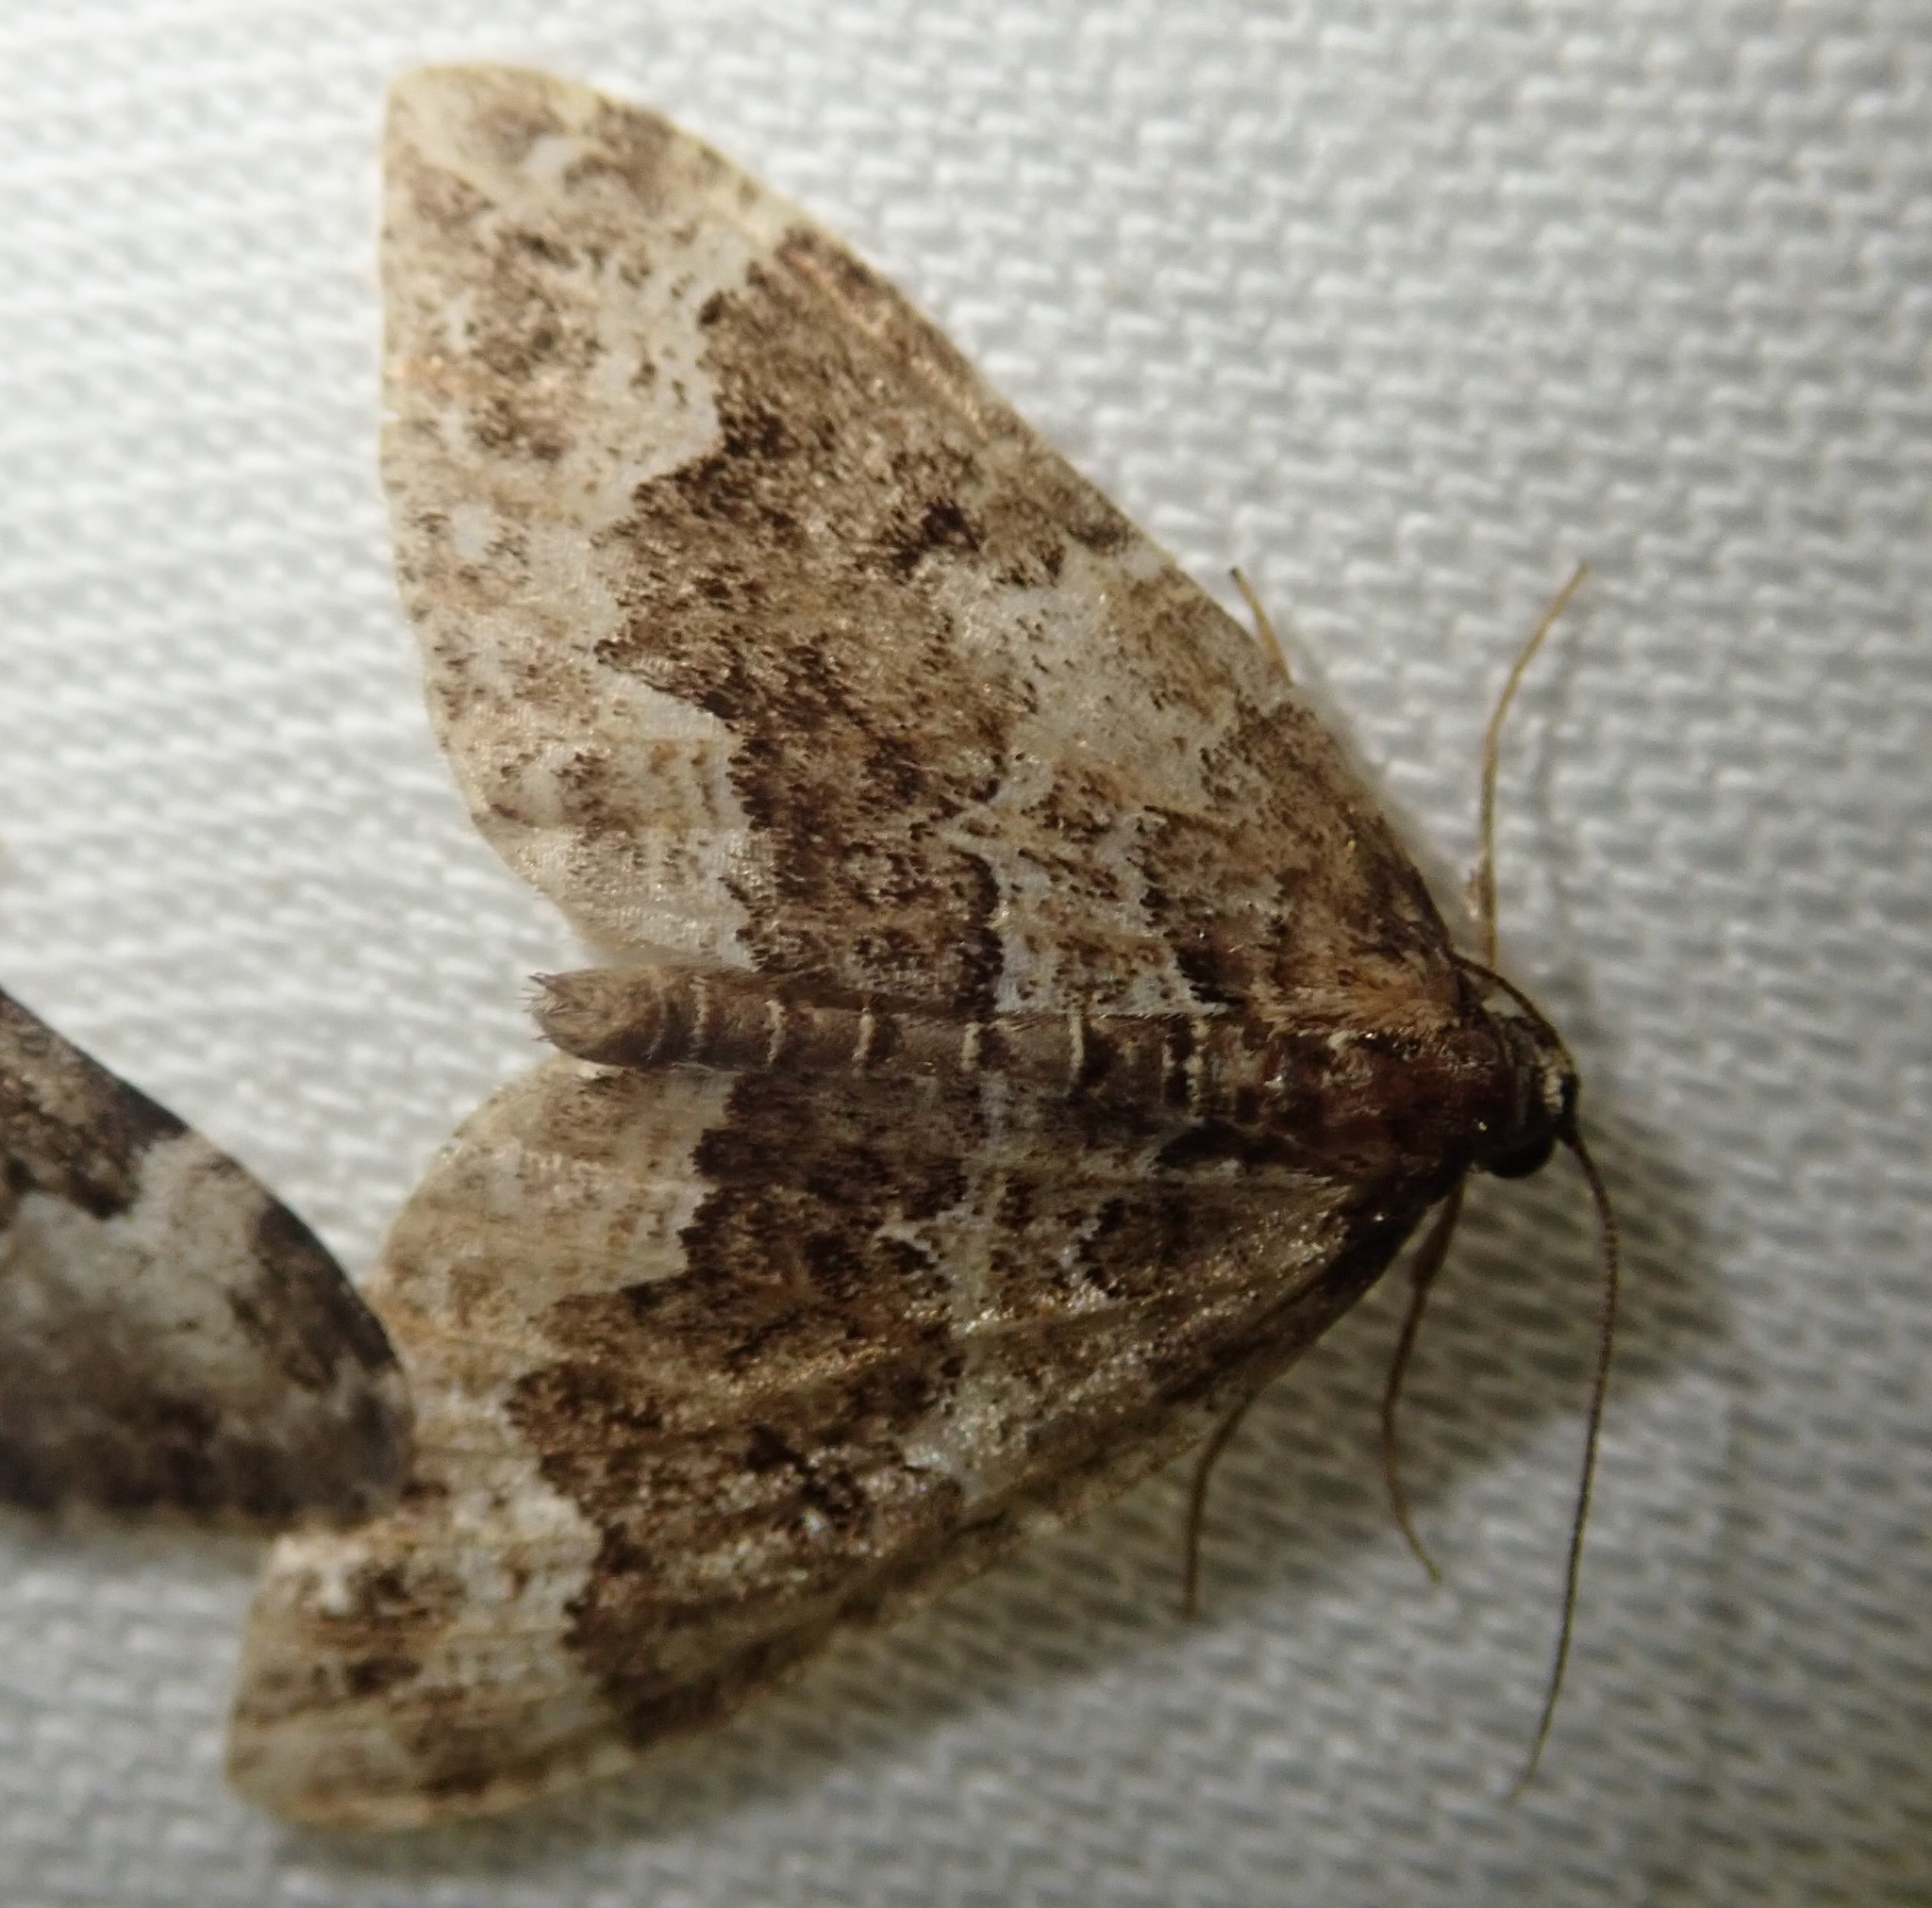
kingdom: Animalia
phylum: Arthropoda
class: Insecta
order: Lepidoptera
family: Geometridae
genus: Lampropteryx
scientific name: Lampropteryx suffumata
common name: Water carpet
